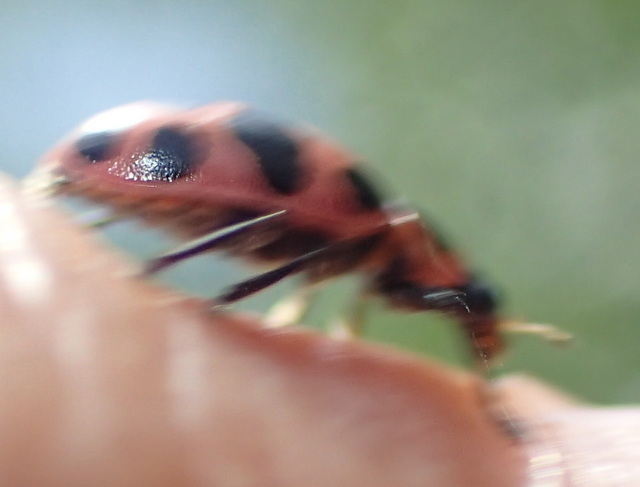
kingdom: Animalia
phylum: Arthropoda
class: Insecta
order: Coleoptera
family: Coccinellidae
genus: Coleomegilla
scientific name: Coleomegilla maculata
